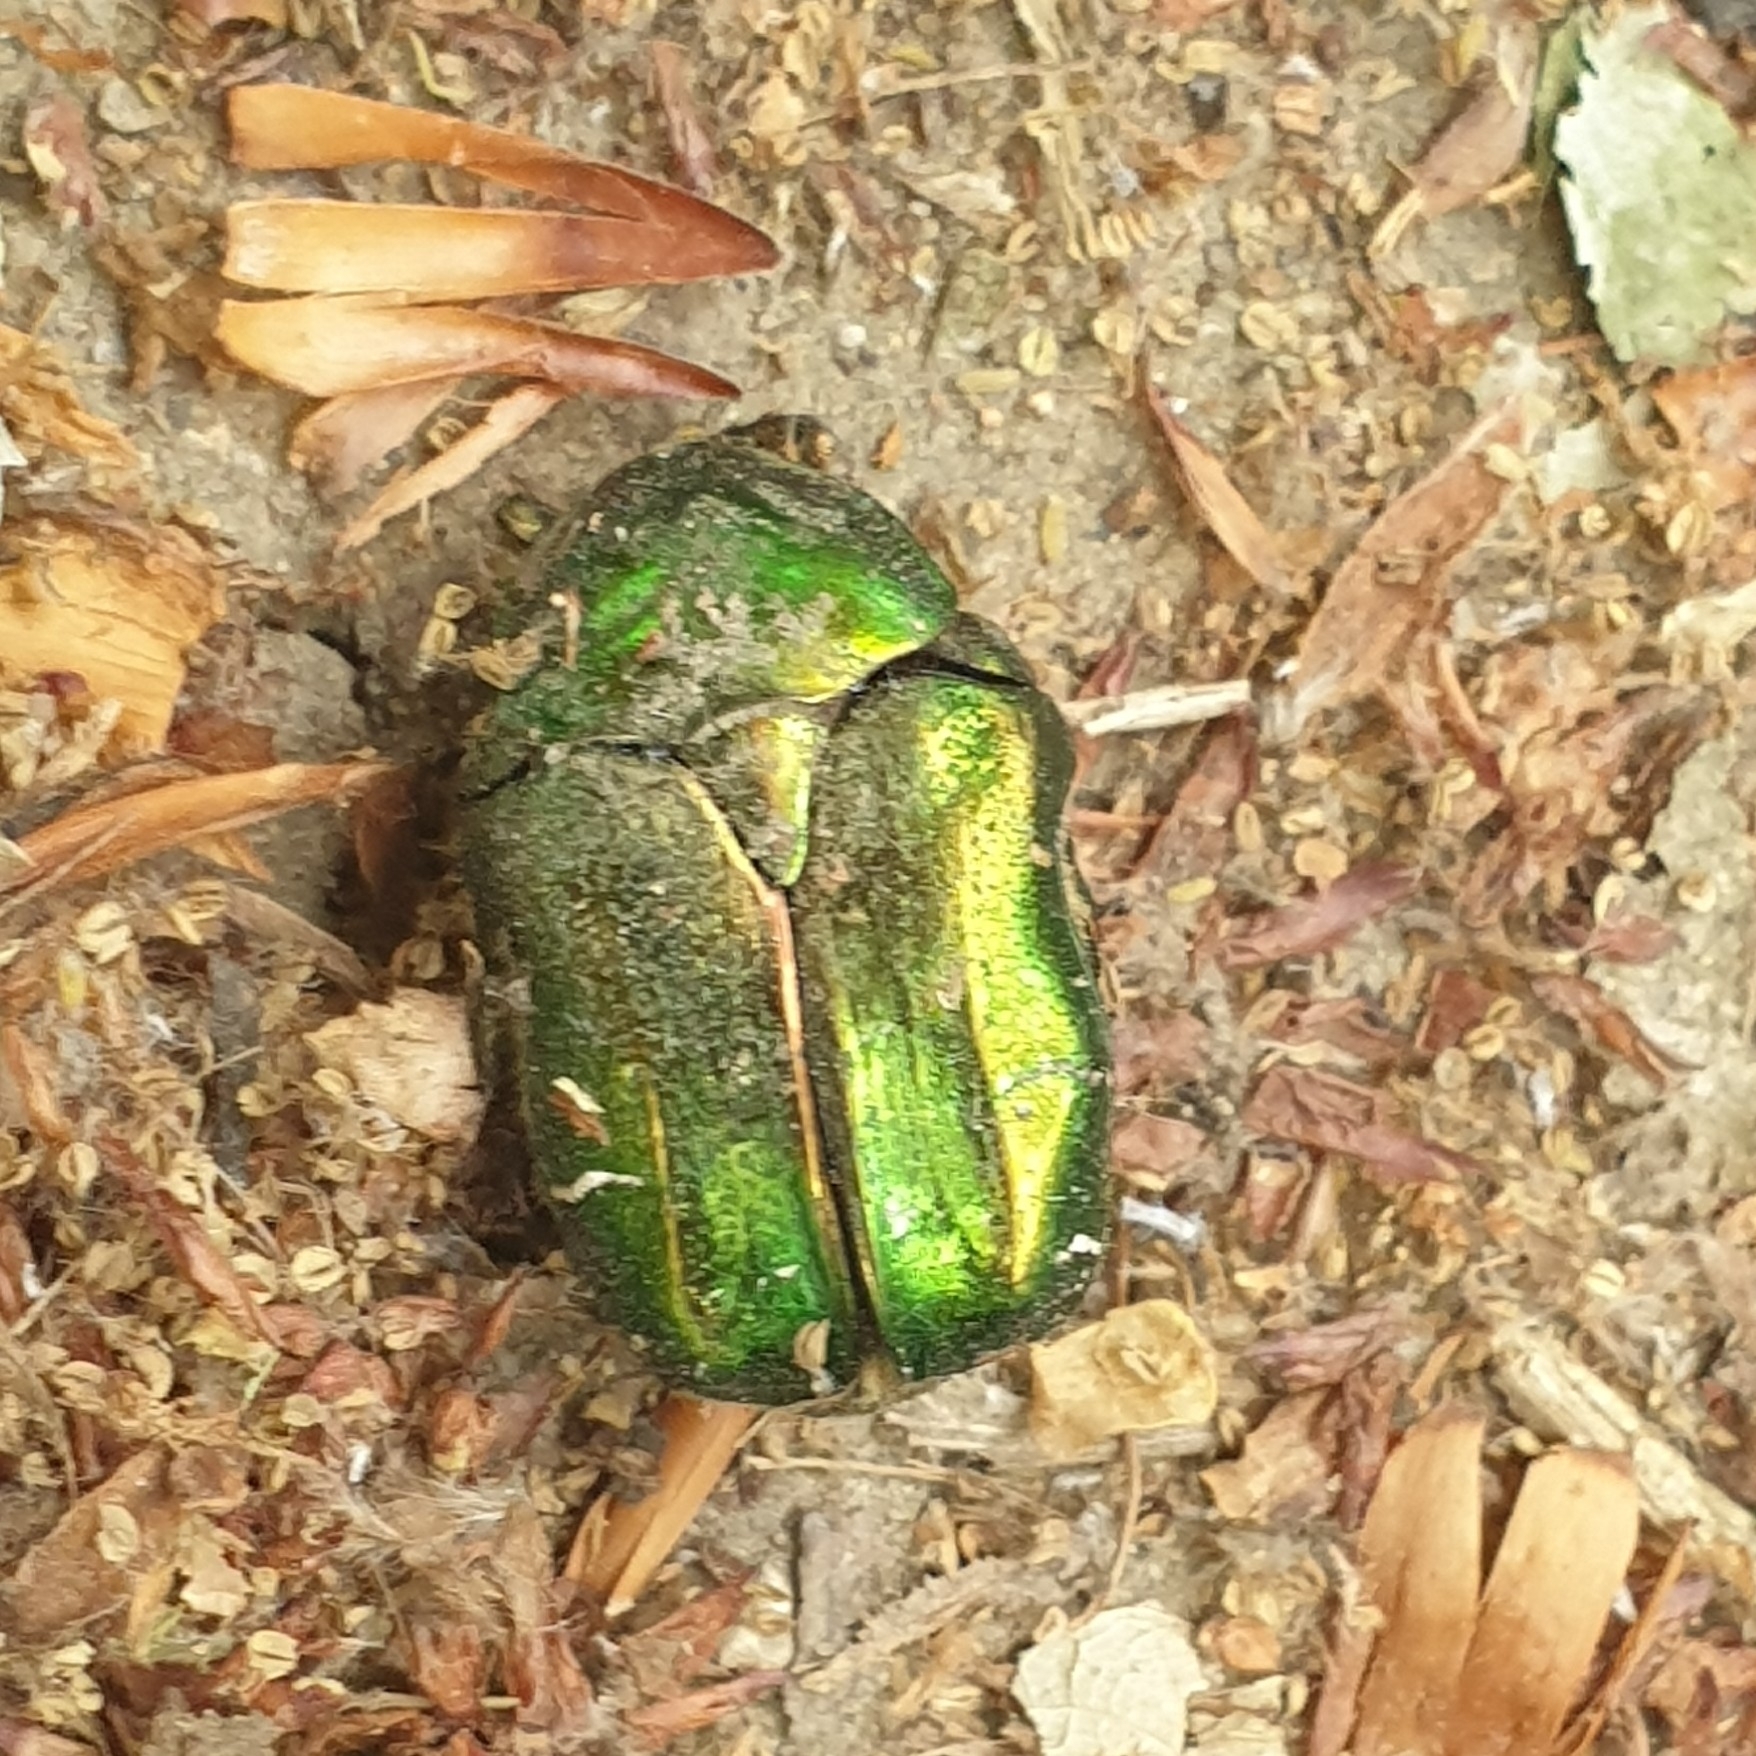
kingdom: Animalia
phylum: Arthropoda
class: Insecta
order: Coleoptera
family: Scarabaeidae
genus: Cetonia
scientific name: Cetonia aurata
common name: Rose chafer
